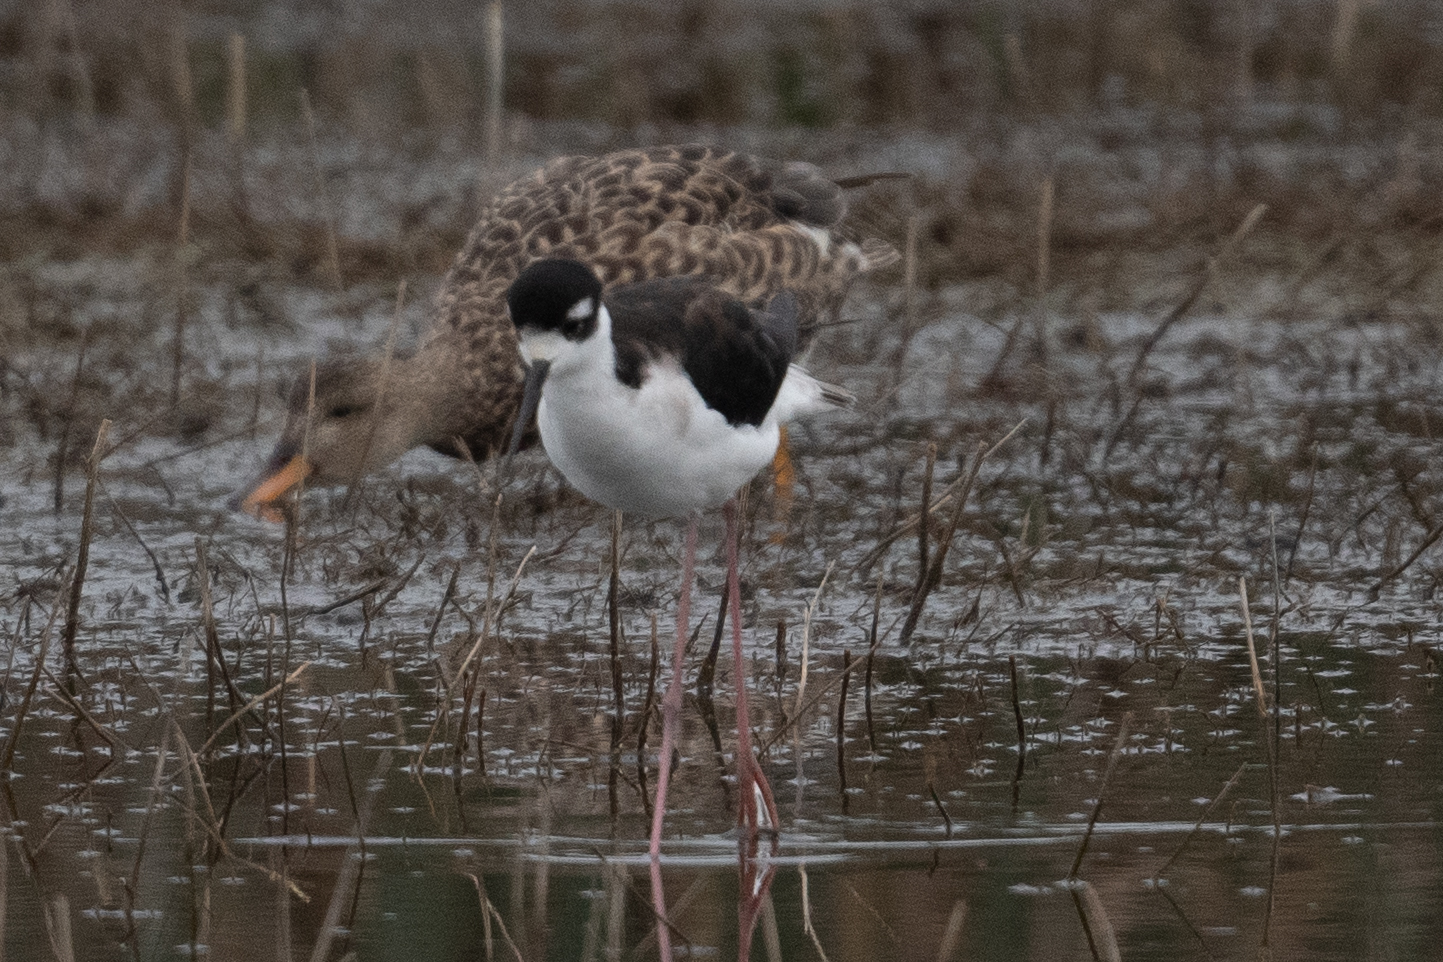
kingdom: Animalia
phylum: Chordata
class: Aves
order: Charadriiformes
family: Recurvirostridae
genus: Himantopus
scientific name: Himantopus mexicanus
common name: Black-necked stilt
